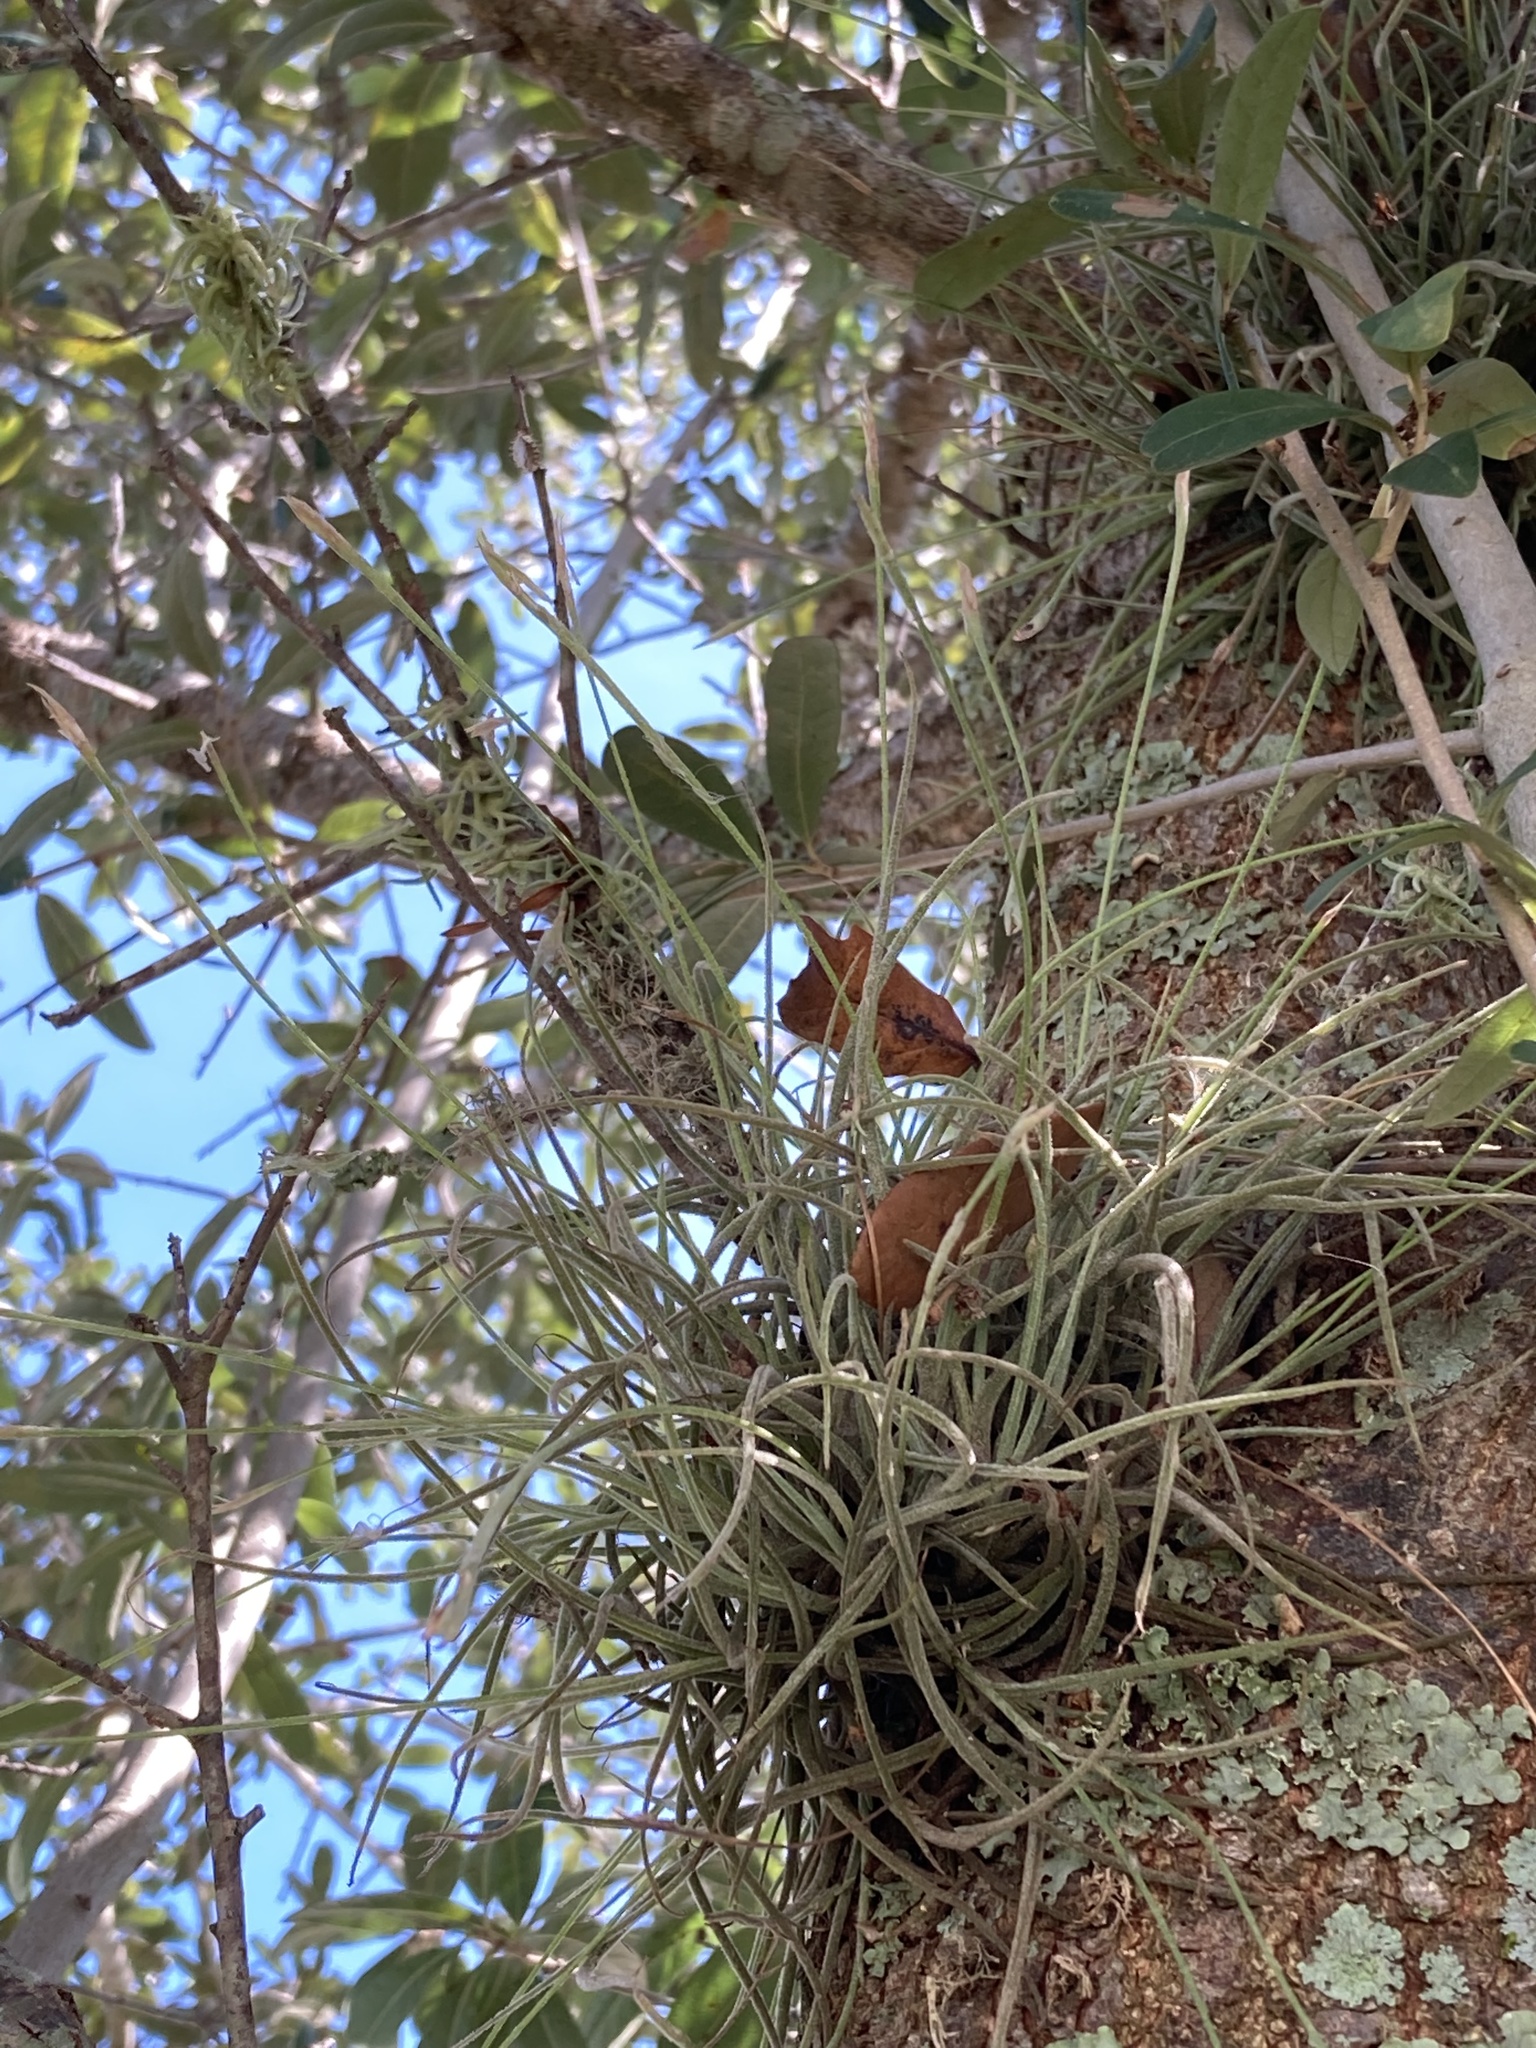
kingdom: Plantae
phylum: Tracheophyta
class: Liliopsida
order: Poales
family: Bromeliaceae
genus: Tillandsia
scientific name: Tillandsia recurvata
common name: Small ballmoss
